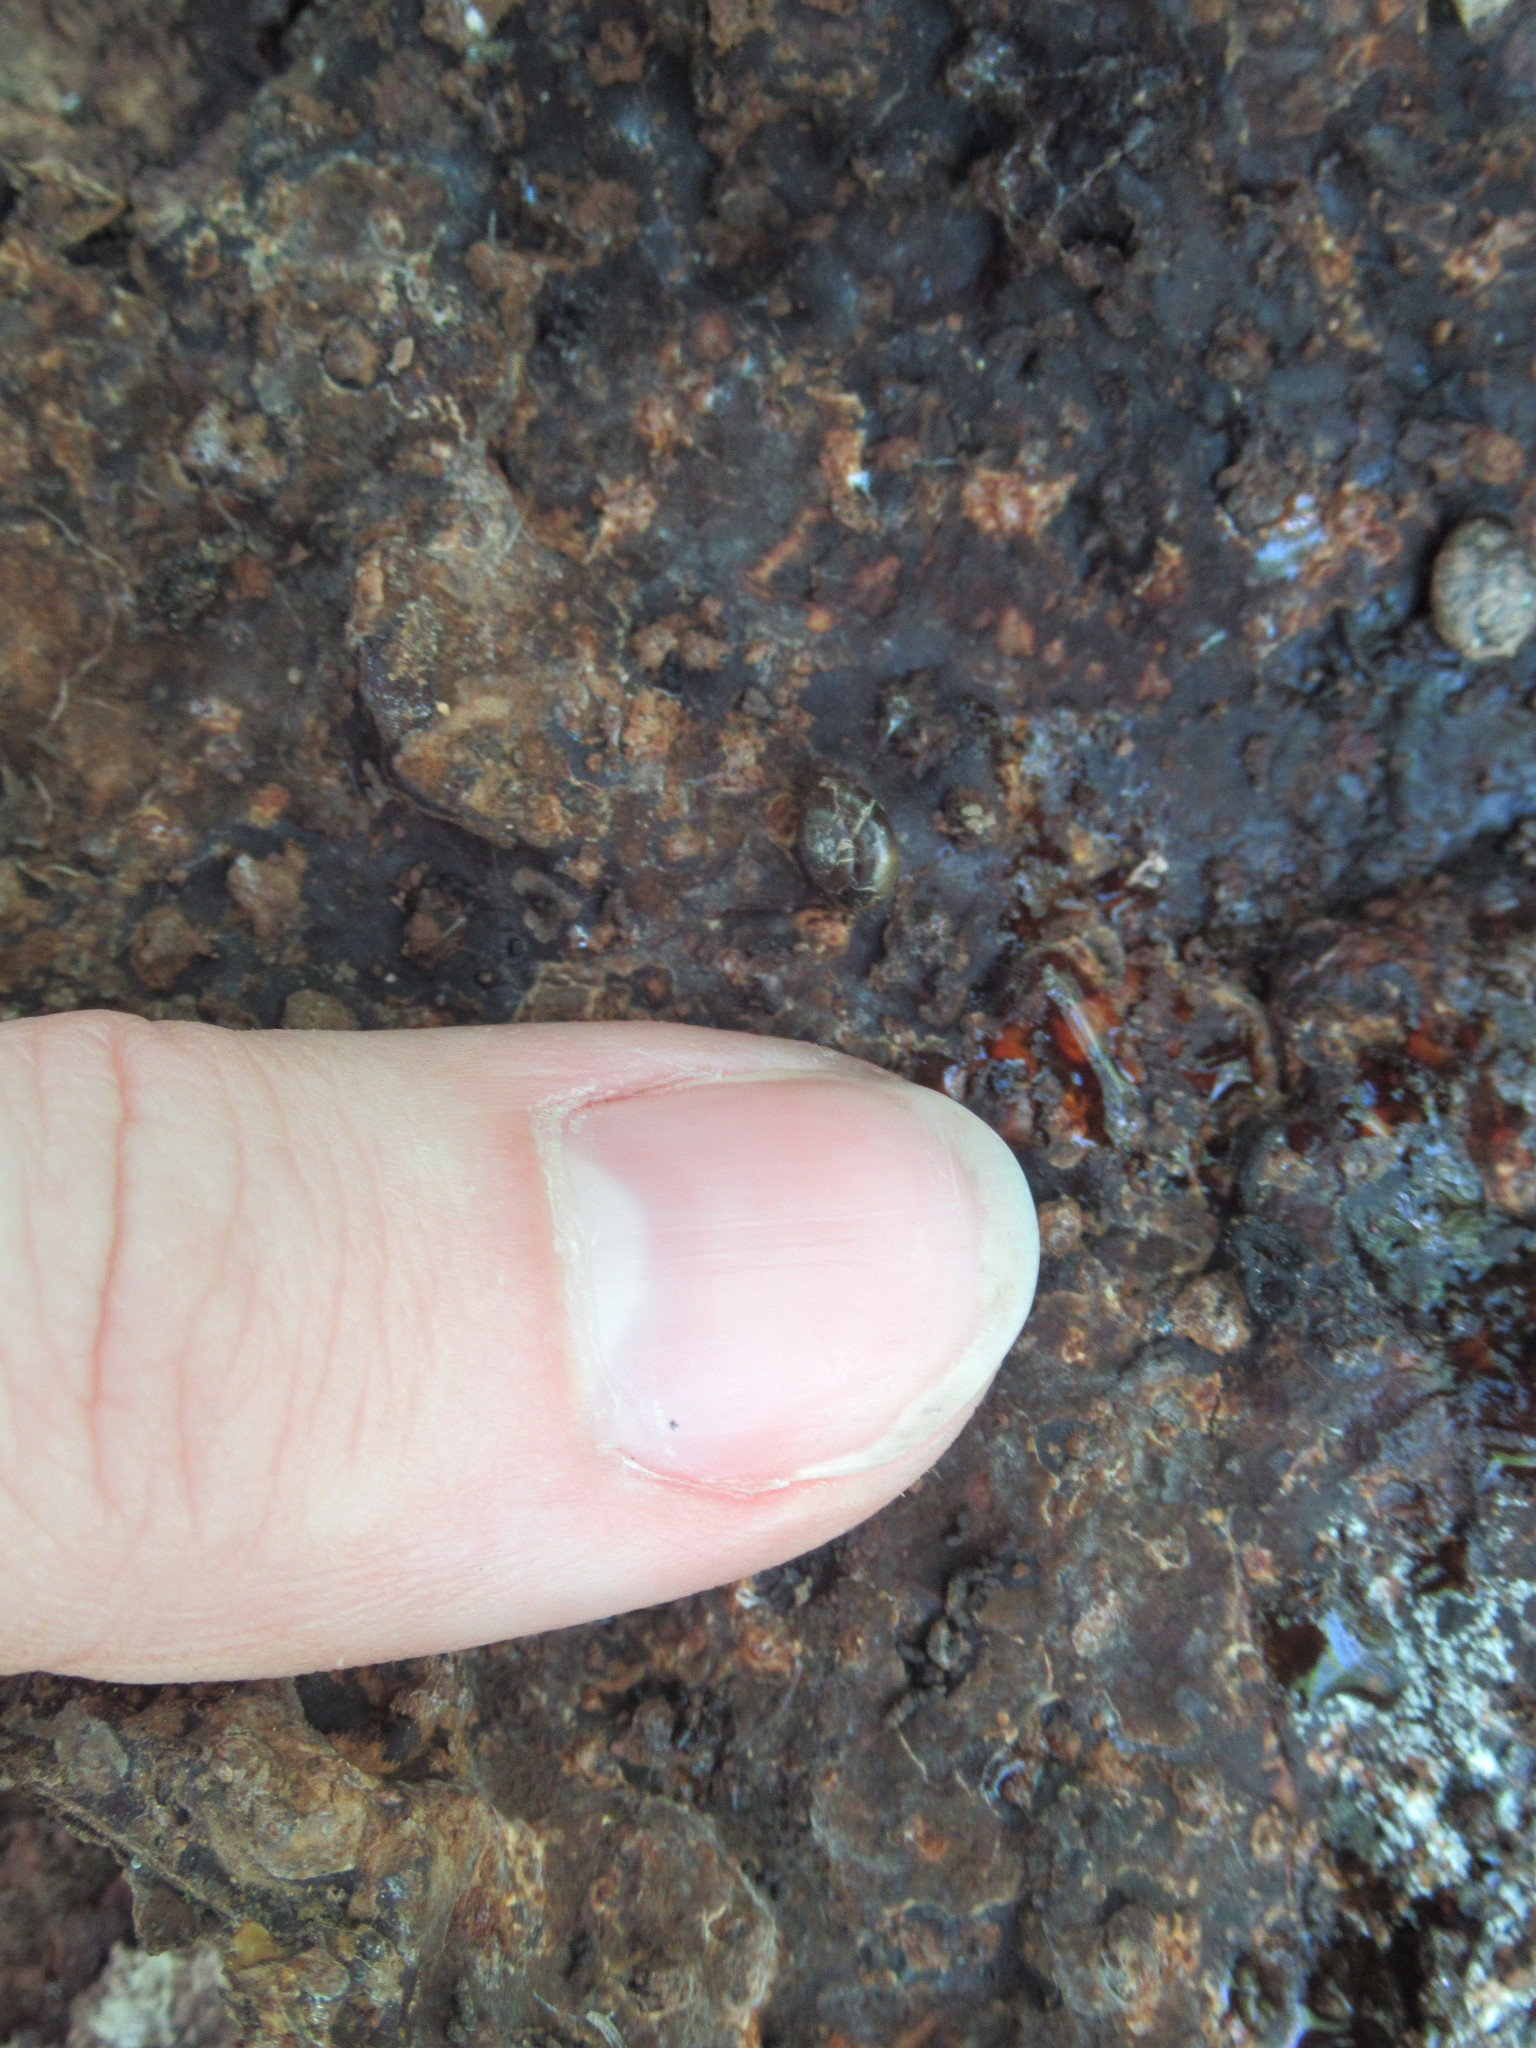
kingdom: Animalia
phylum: Mollusca
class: Gastropoda
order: Stylommatophora
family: Oxychilidae
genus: Oxychilus
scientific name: Oxychilus draparnaudi
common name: Draparnaud's glass snail
